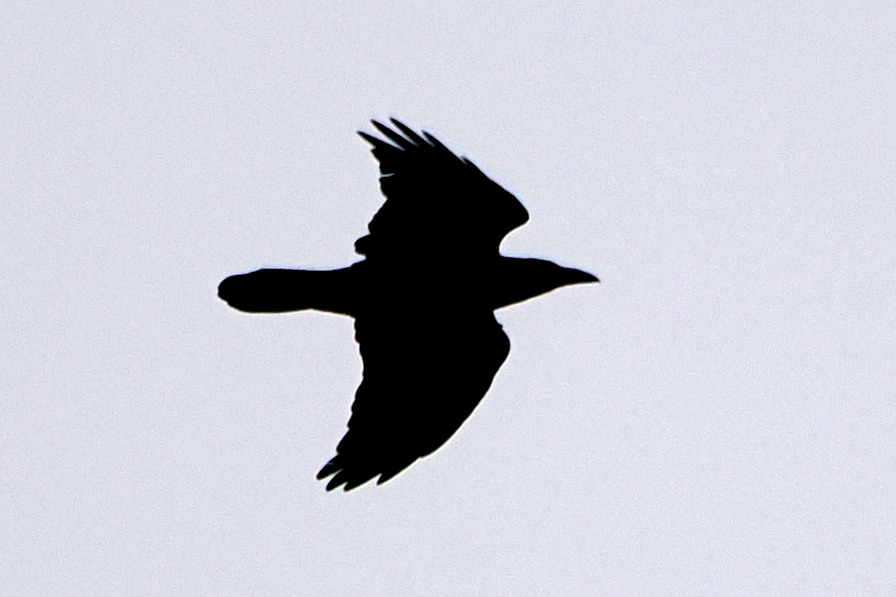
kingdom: Animalia
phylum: Chordata
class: Aves
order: Passeriformes
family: Corvidae
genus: Corvus
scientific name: Corvus corax
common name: Common raven
